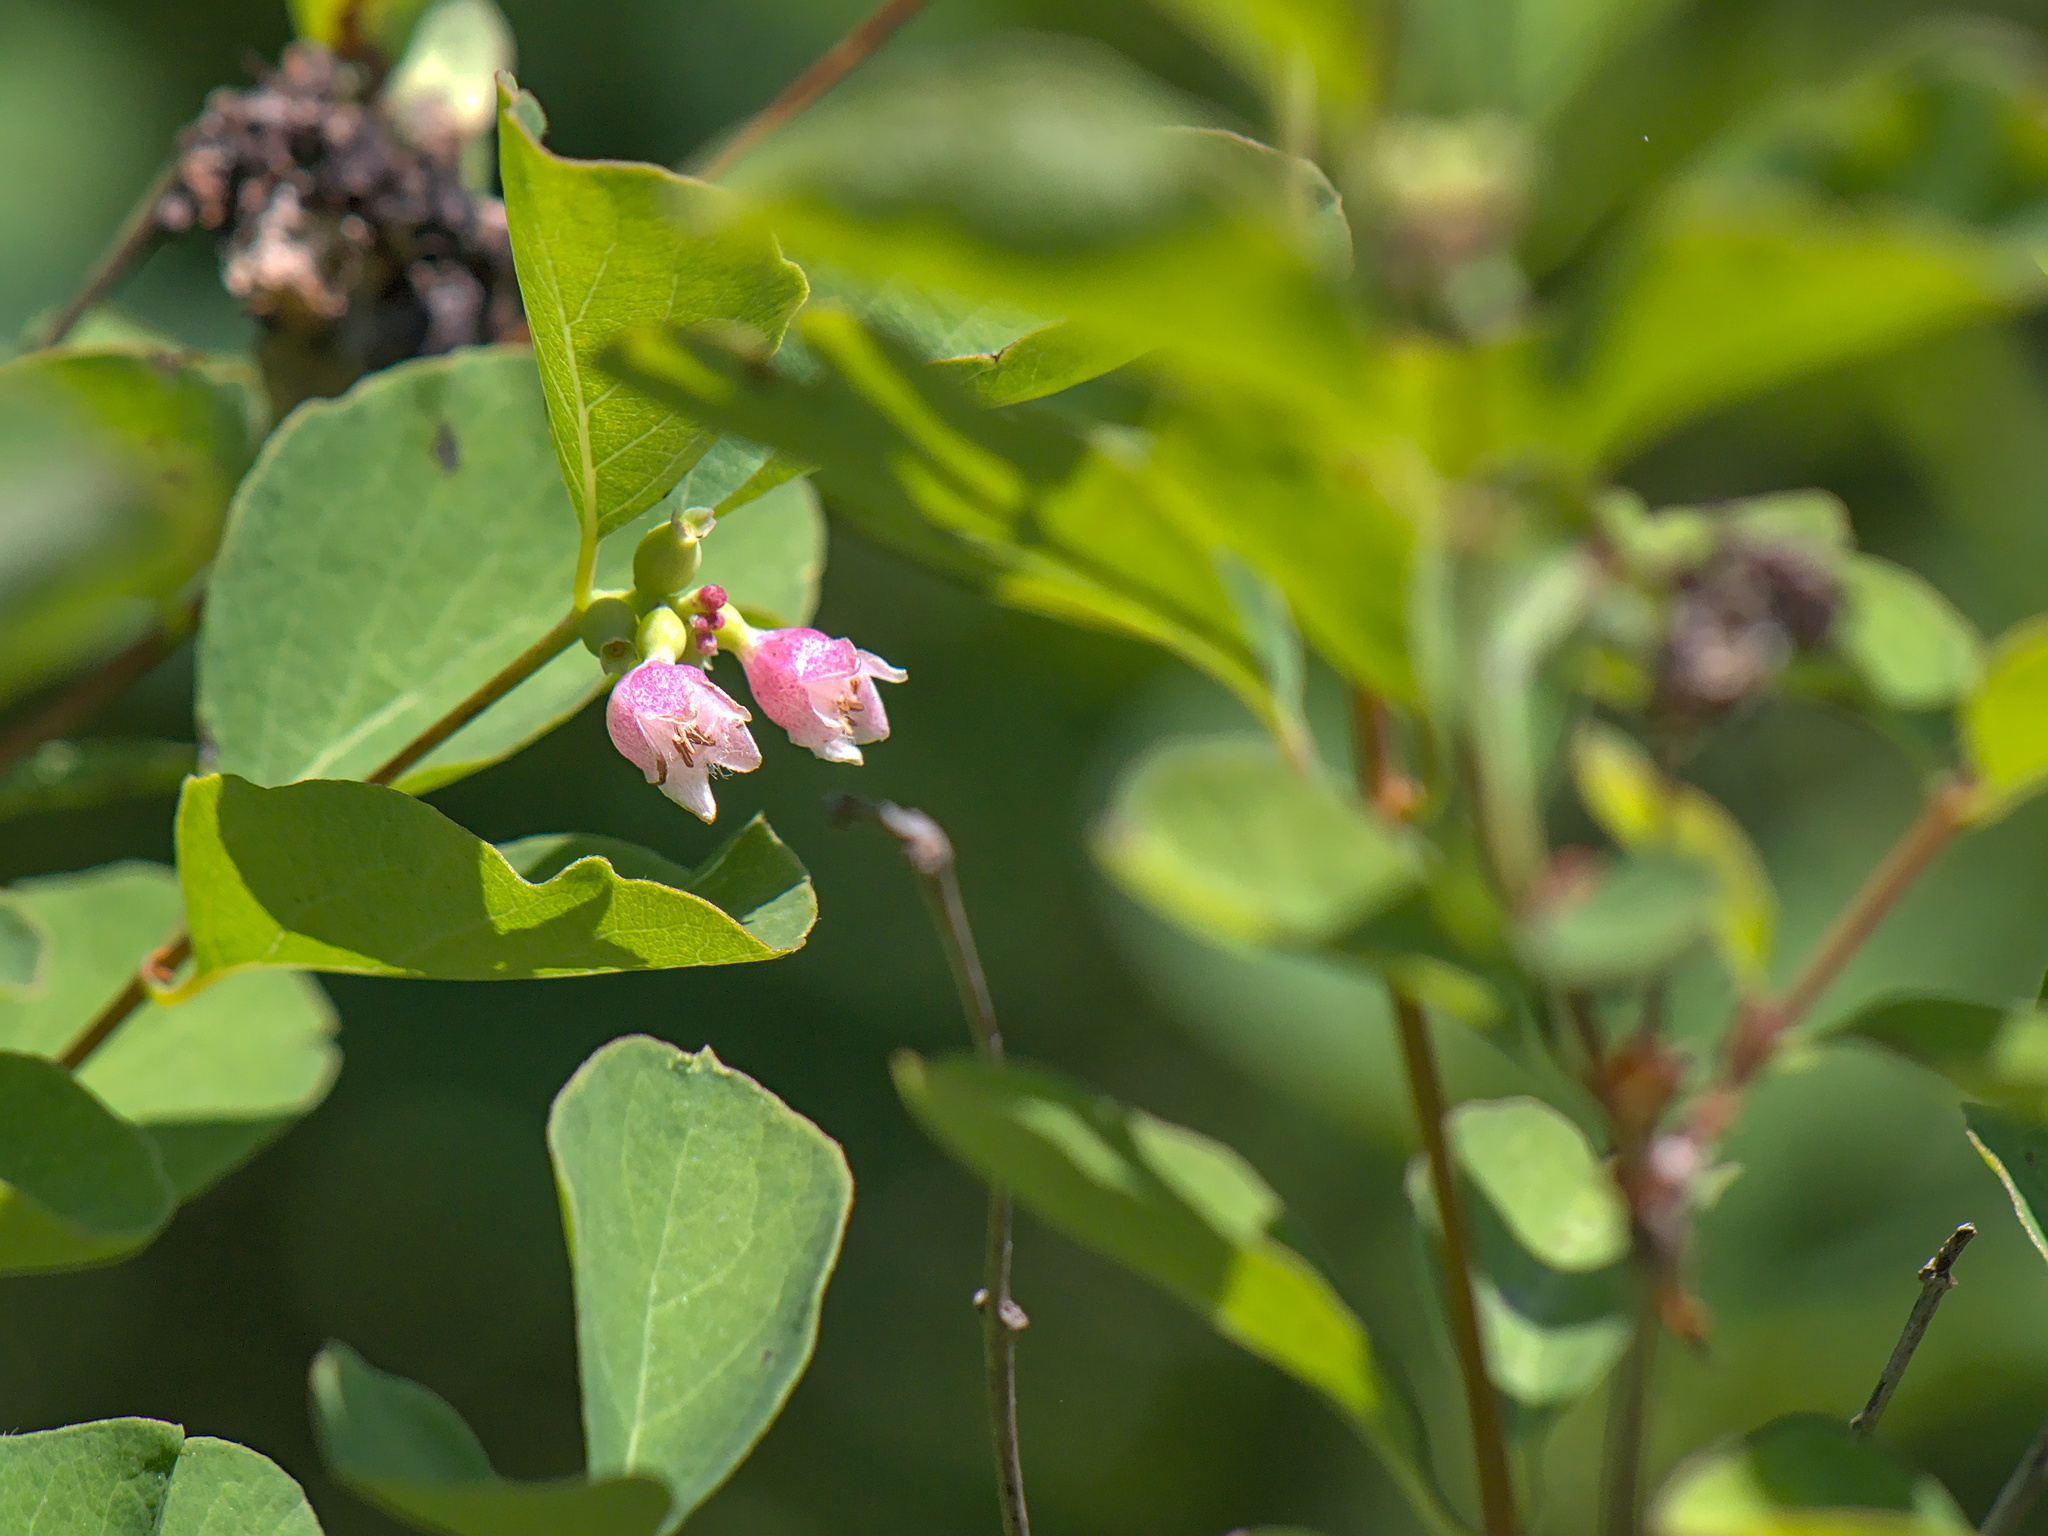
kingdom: Plantae
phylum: Tracheophyta
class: Magnoliopsida
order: Dipsacales
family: Caprifoliaceae
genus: Symphoricarpos
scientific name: Symphoricarpos albus
